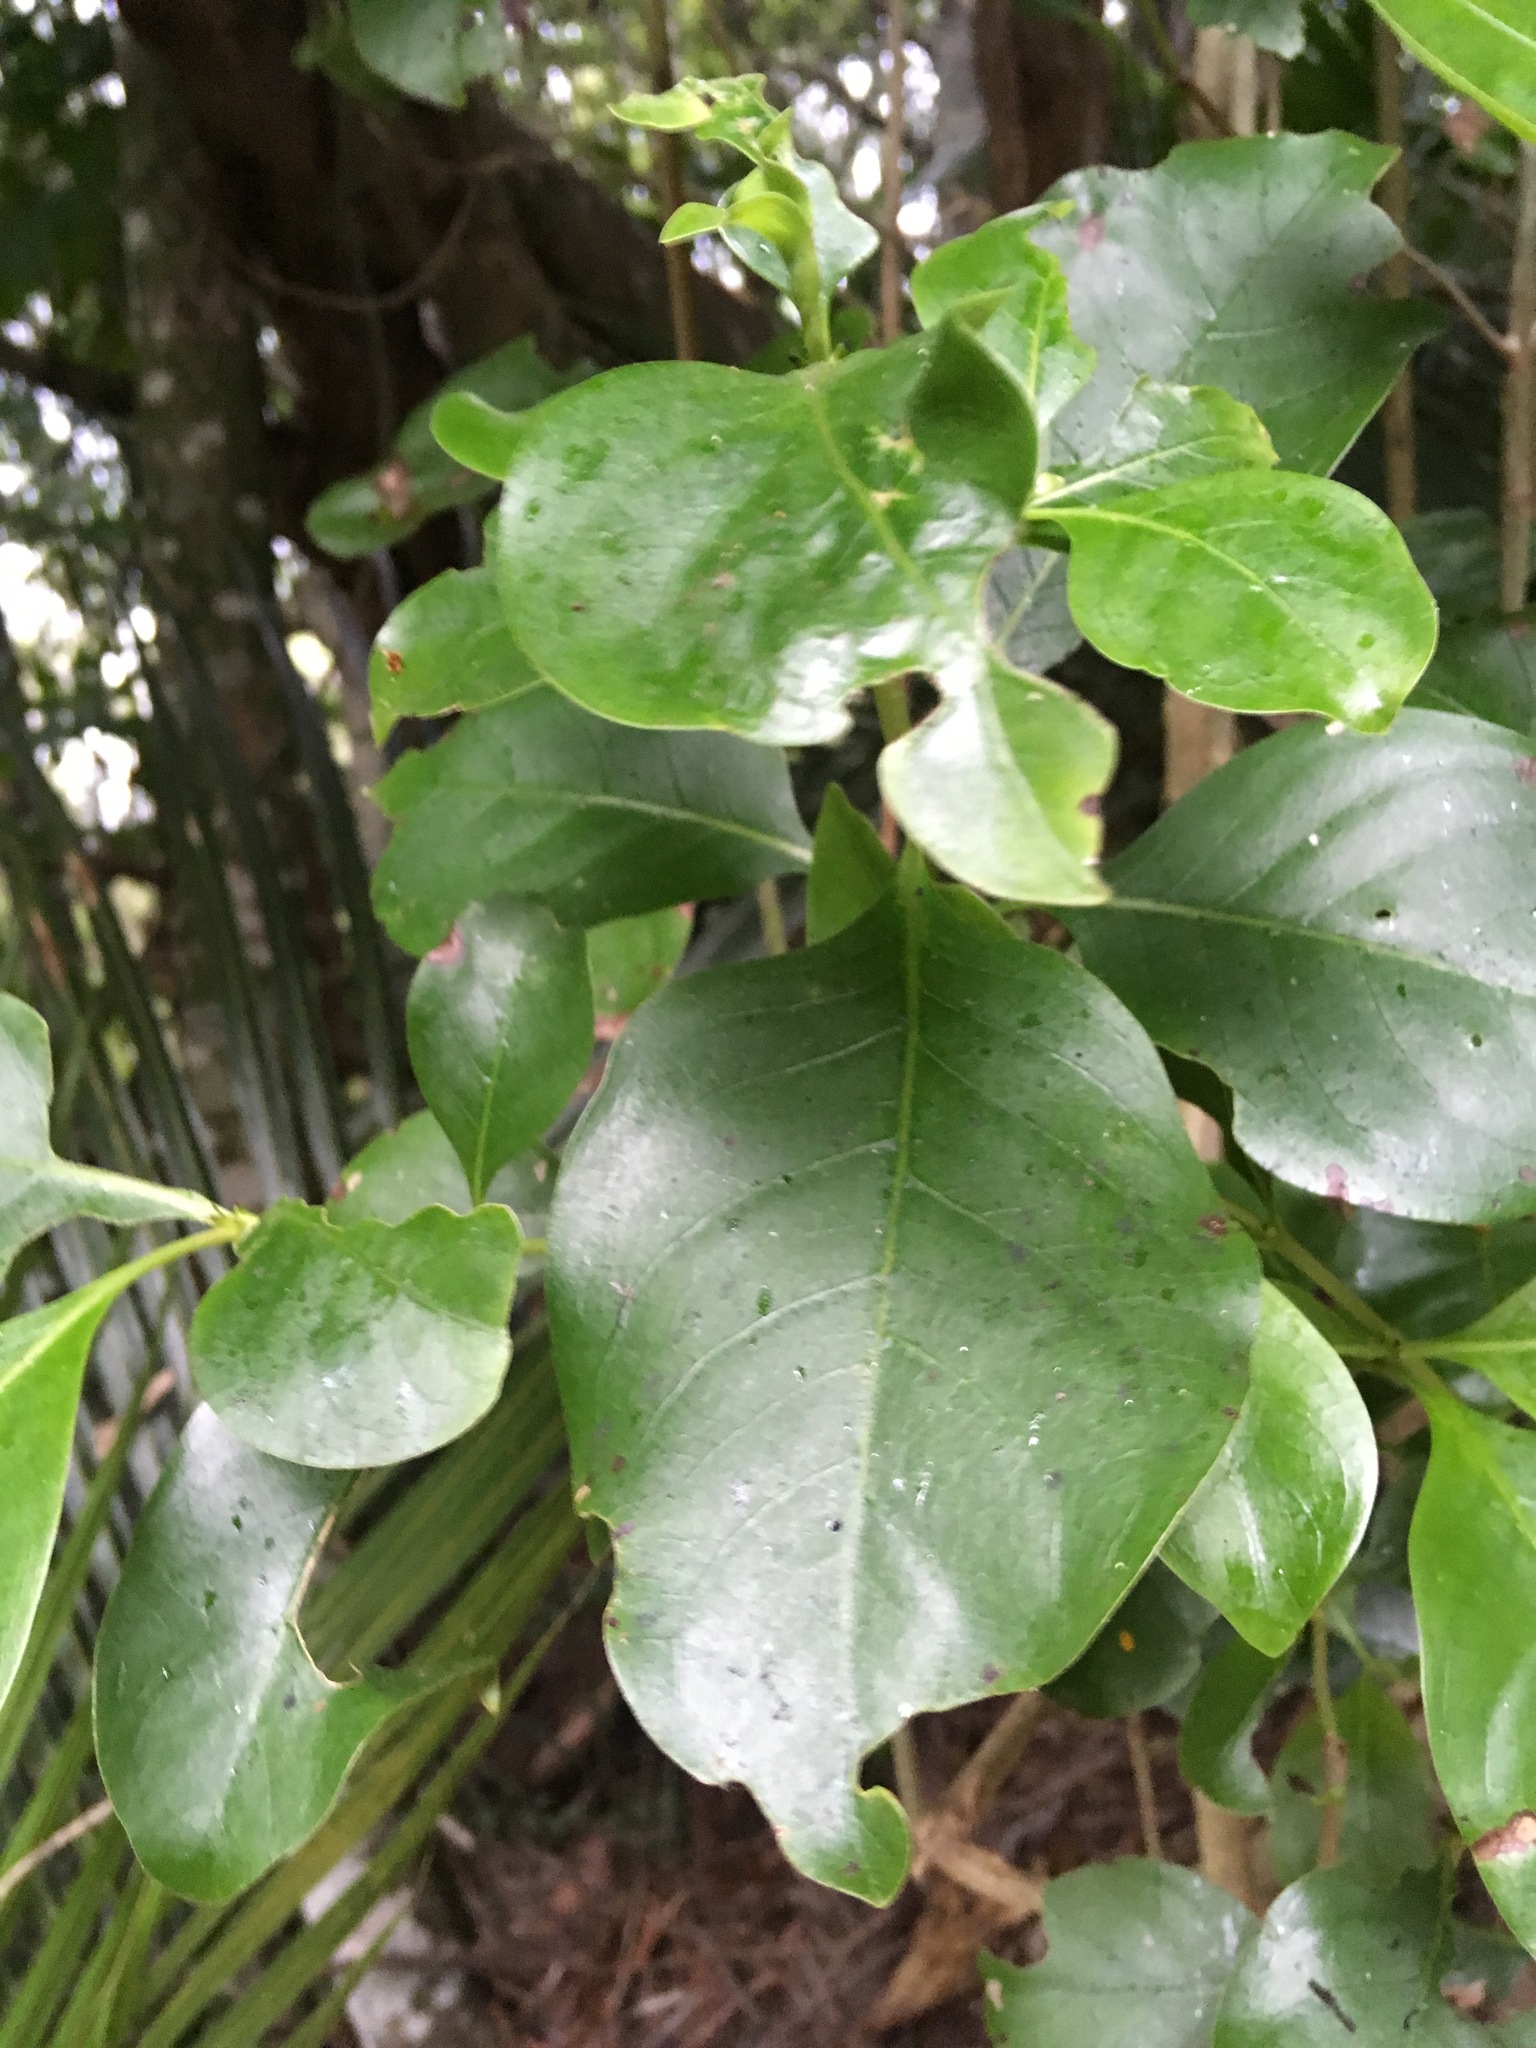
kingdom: Plantae
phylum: Tracheophyta
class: Magnoliopsida
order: Gentianales
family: Rubiaceae
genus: Coprosma
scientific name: Coprosma macrocarpa
